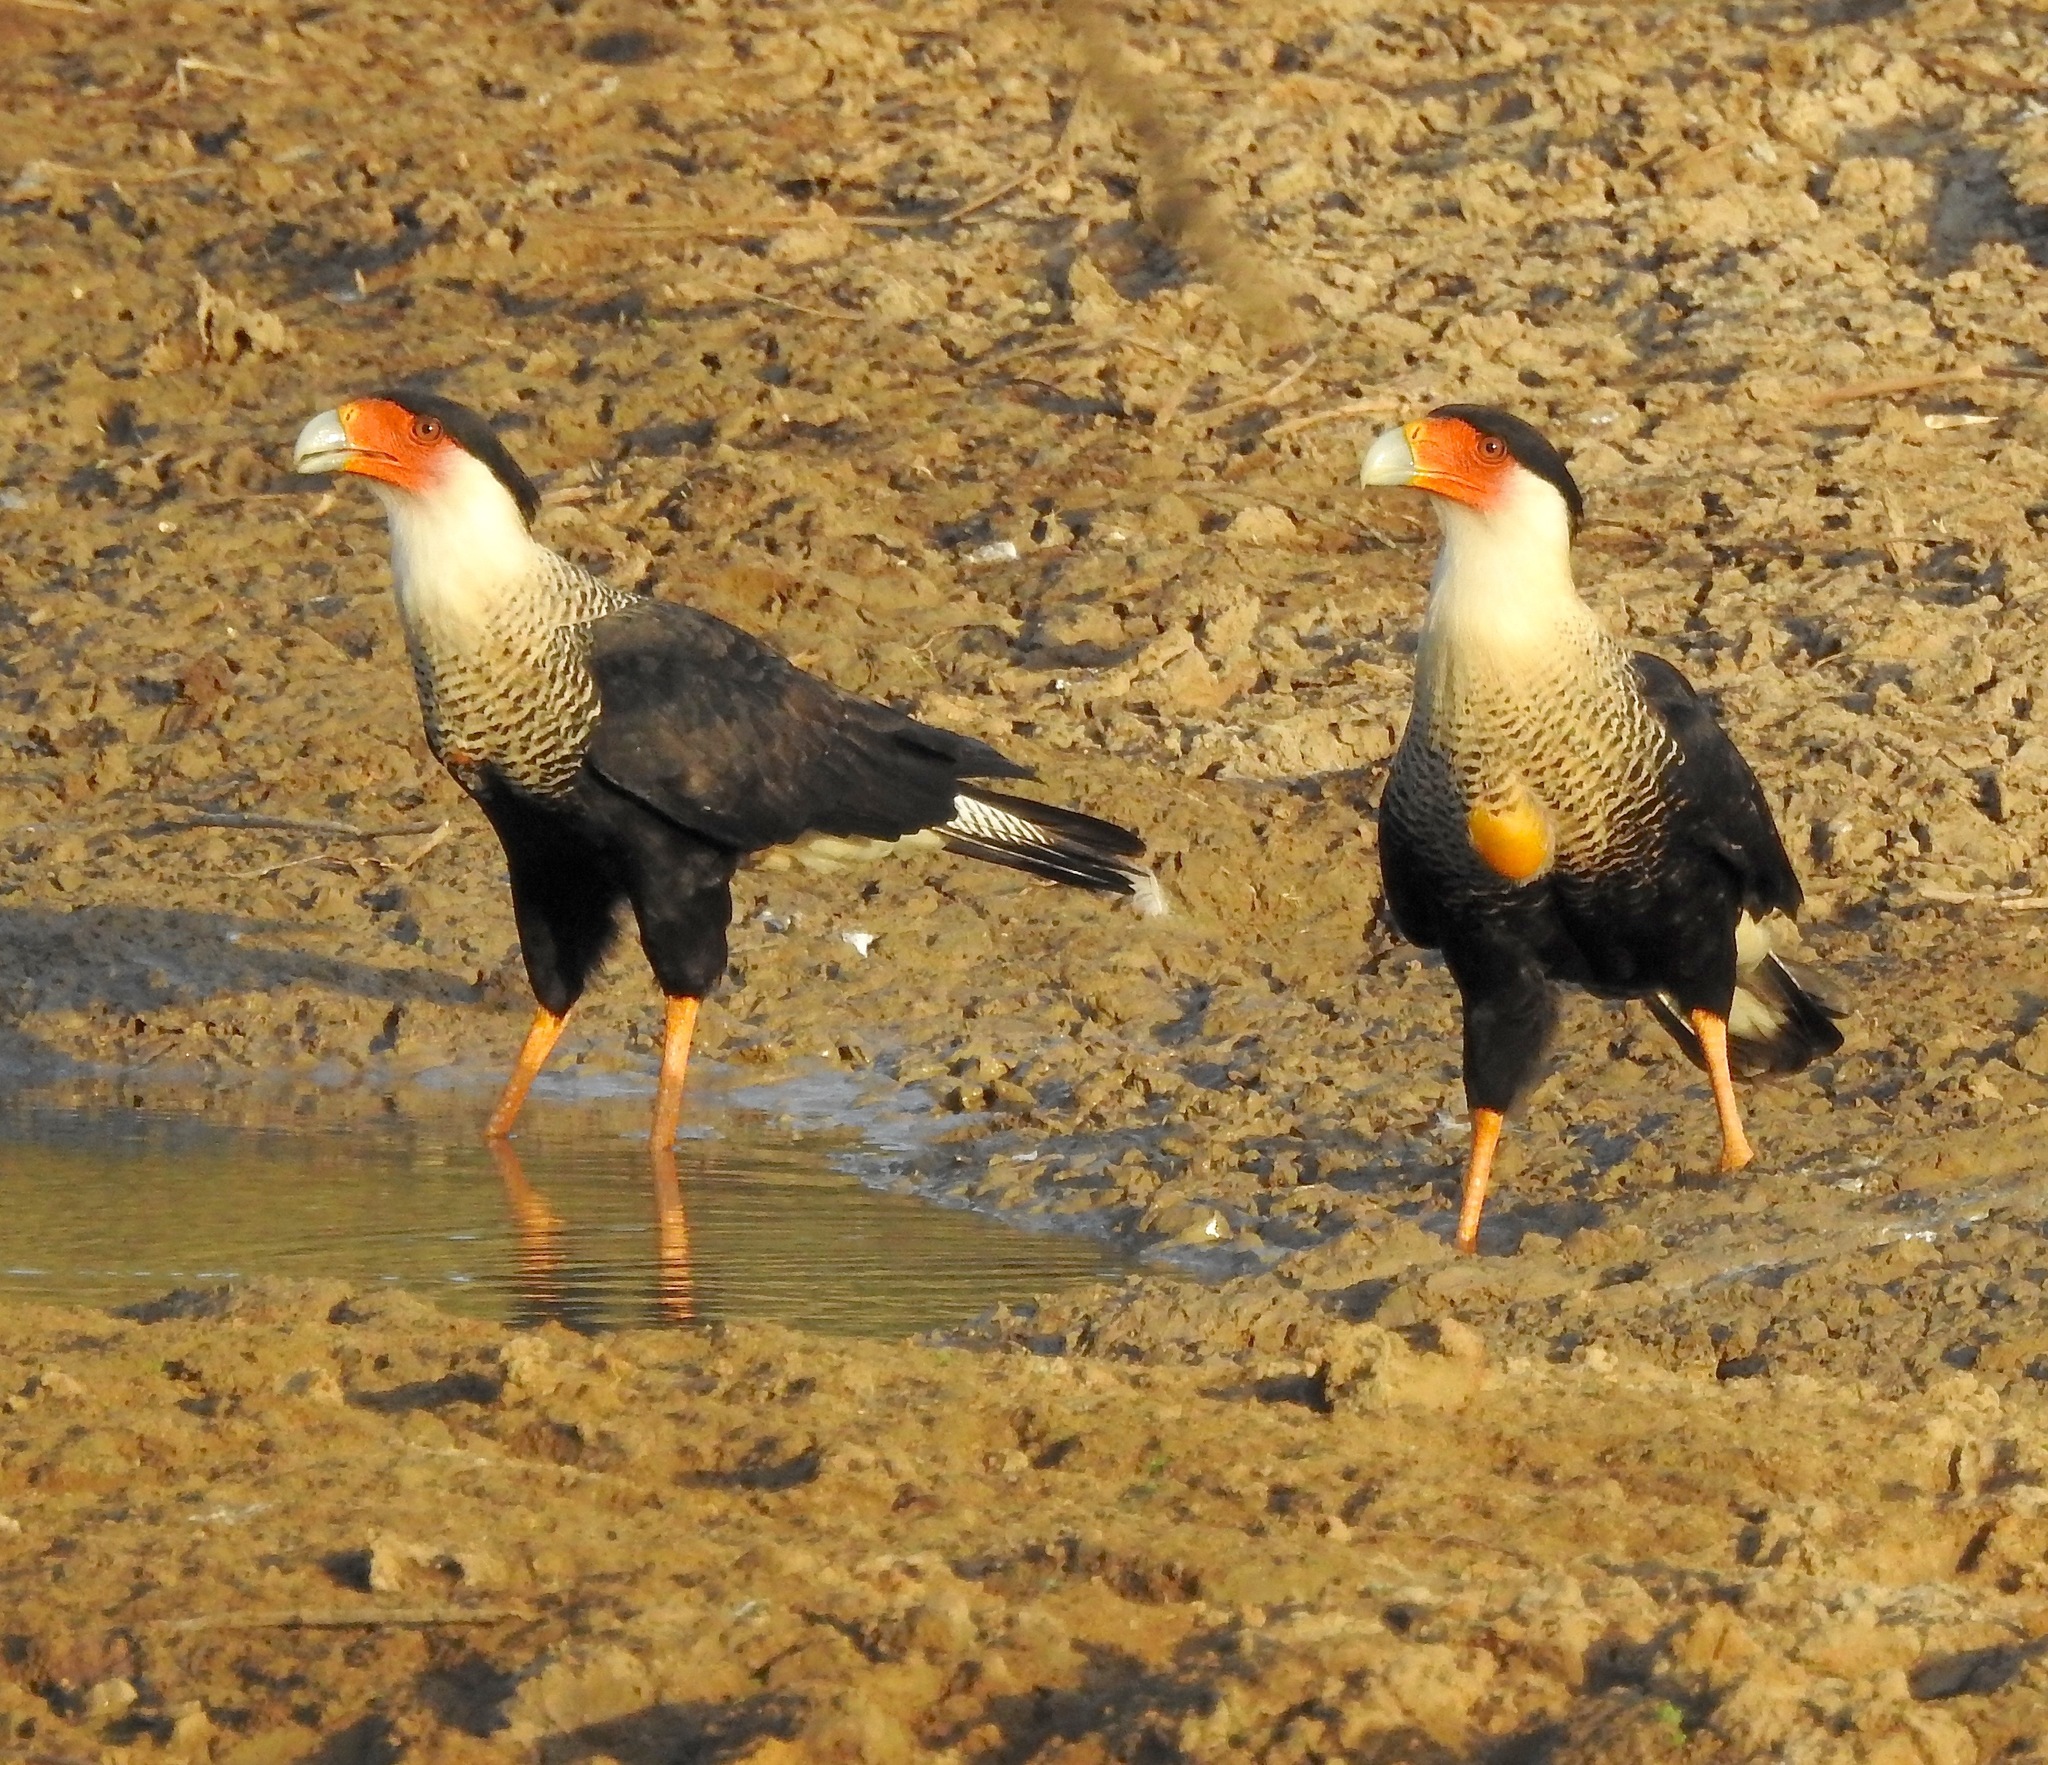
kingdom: Animalia
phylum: Chordata
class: Aves
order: Falconiformes
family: Falconidae
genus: Caracara
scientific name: Caracara plancus
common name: Southern caracara
